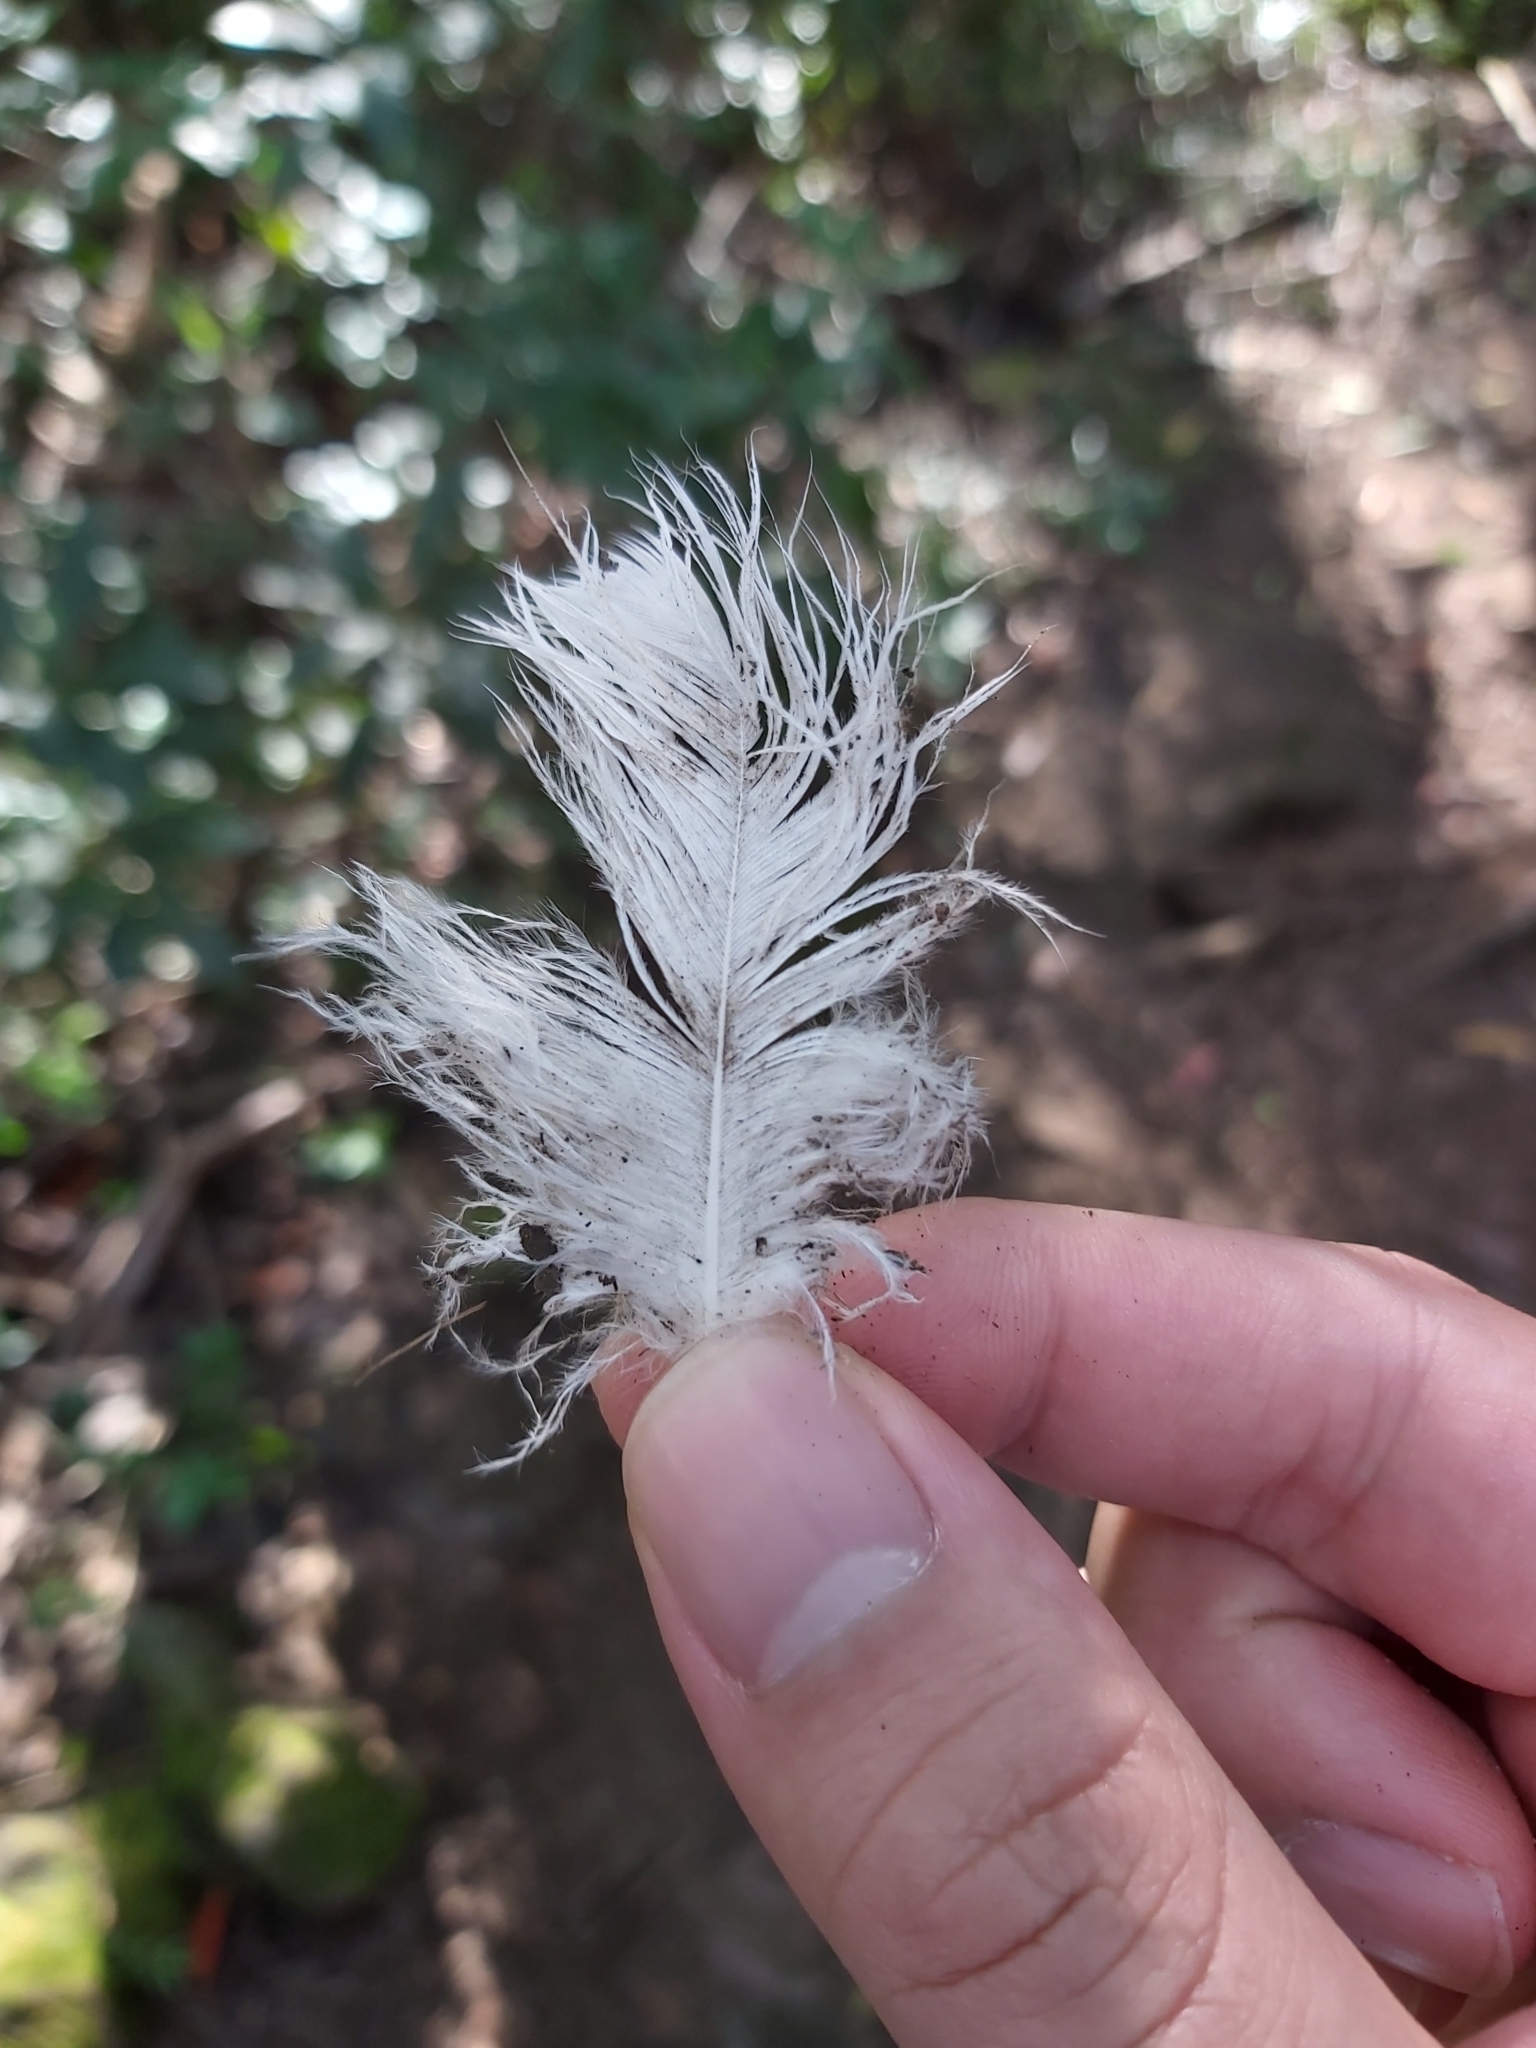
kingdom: Animalia
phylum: Chordata
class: Aves
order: Psittaciformes
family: Psittacidae
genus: Cacatua
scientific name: Cacatua galerita
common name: Sulphur-crested cockatoo
